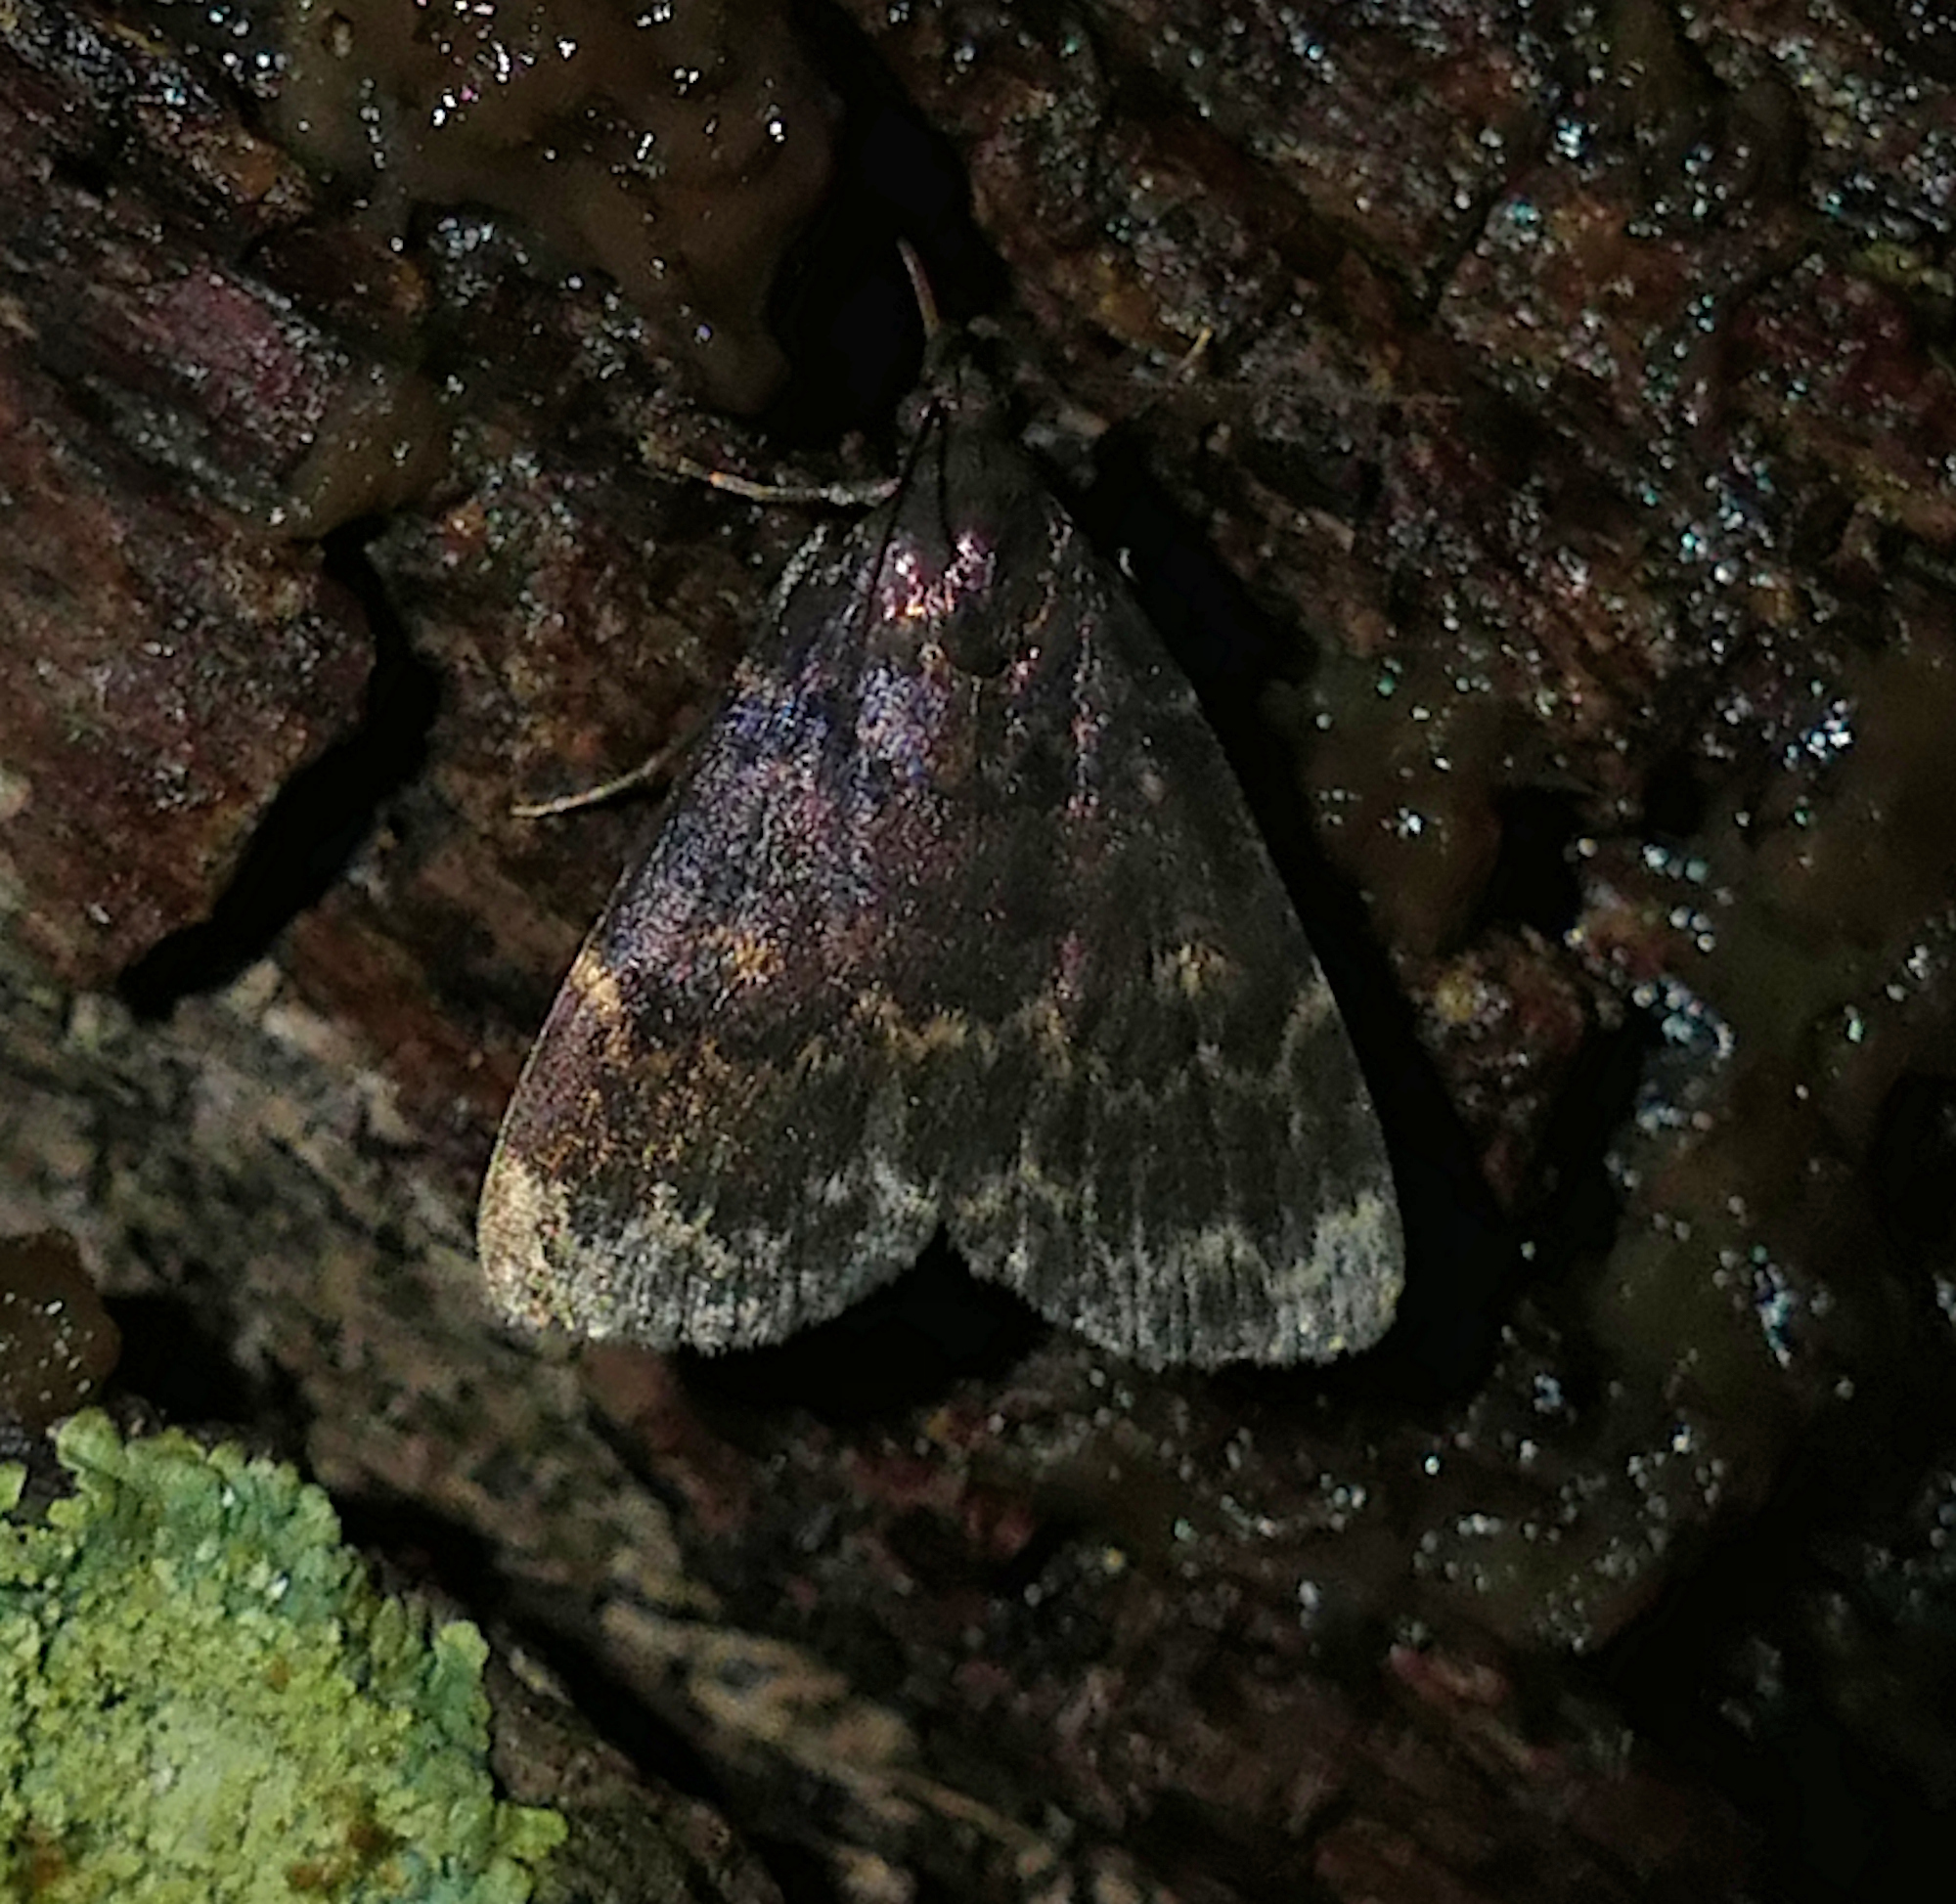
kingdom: Animalia
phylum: Arthropoda
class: Insecta
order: Lepidoptera
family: Erebidae
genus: Idia
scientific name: Idia lubricalis
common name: Twin-striped tabby
